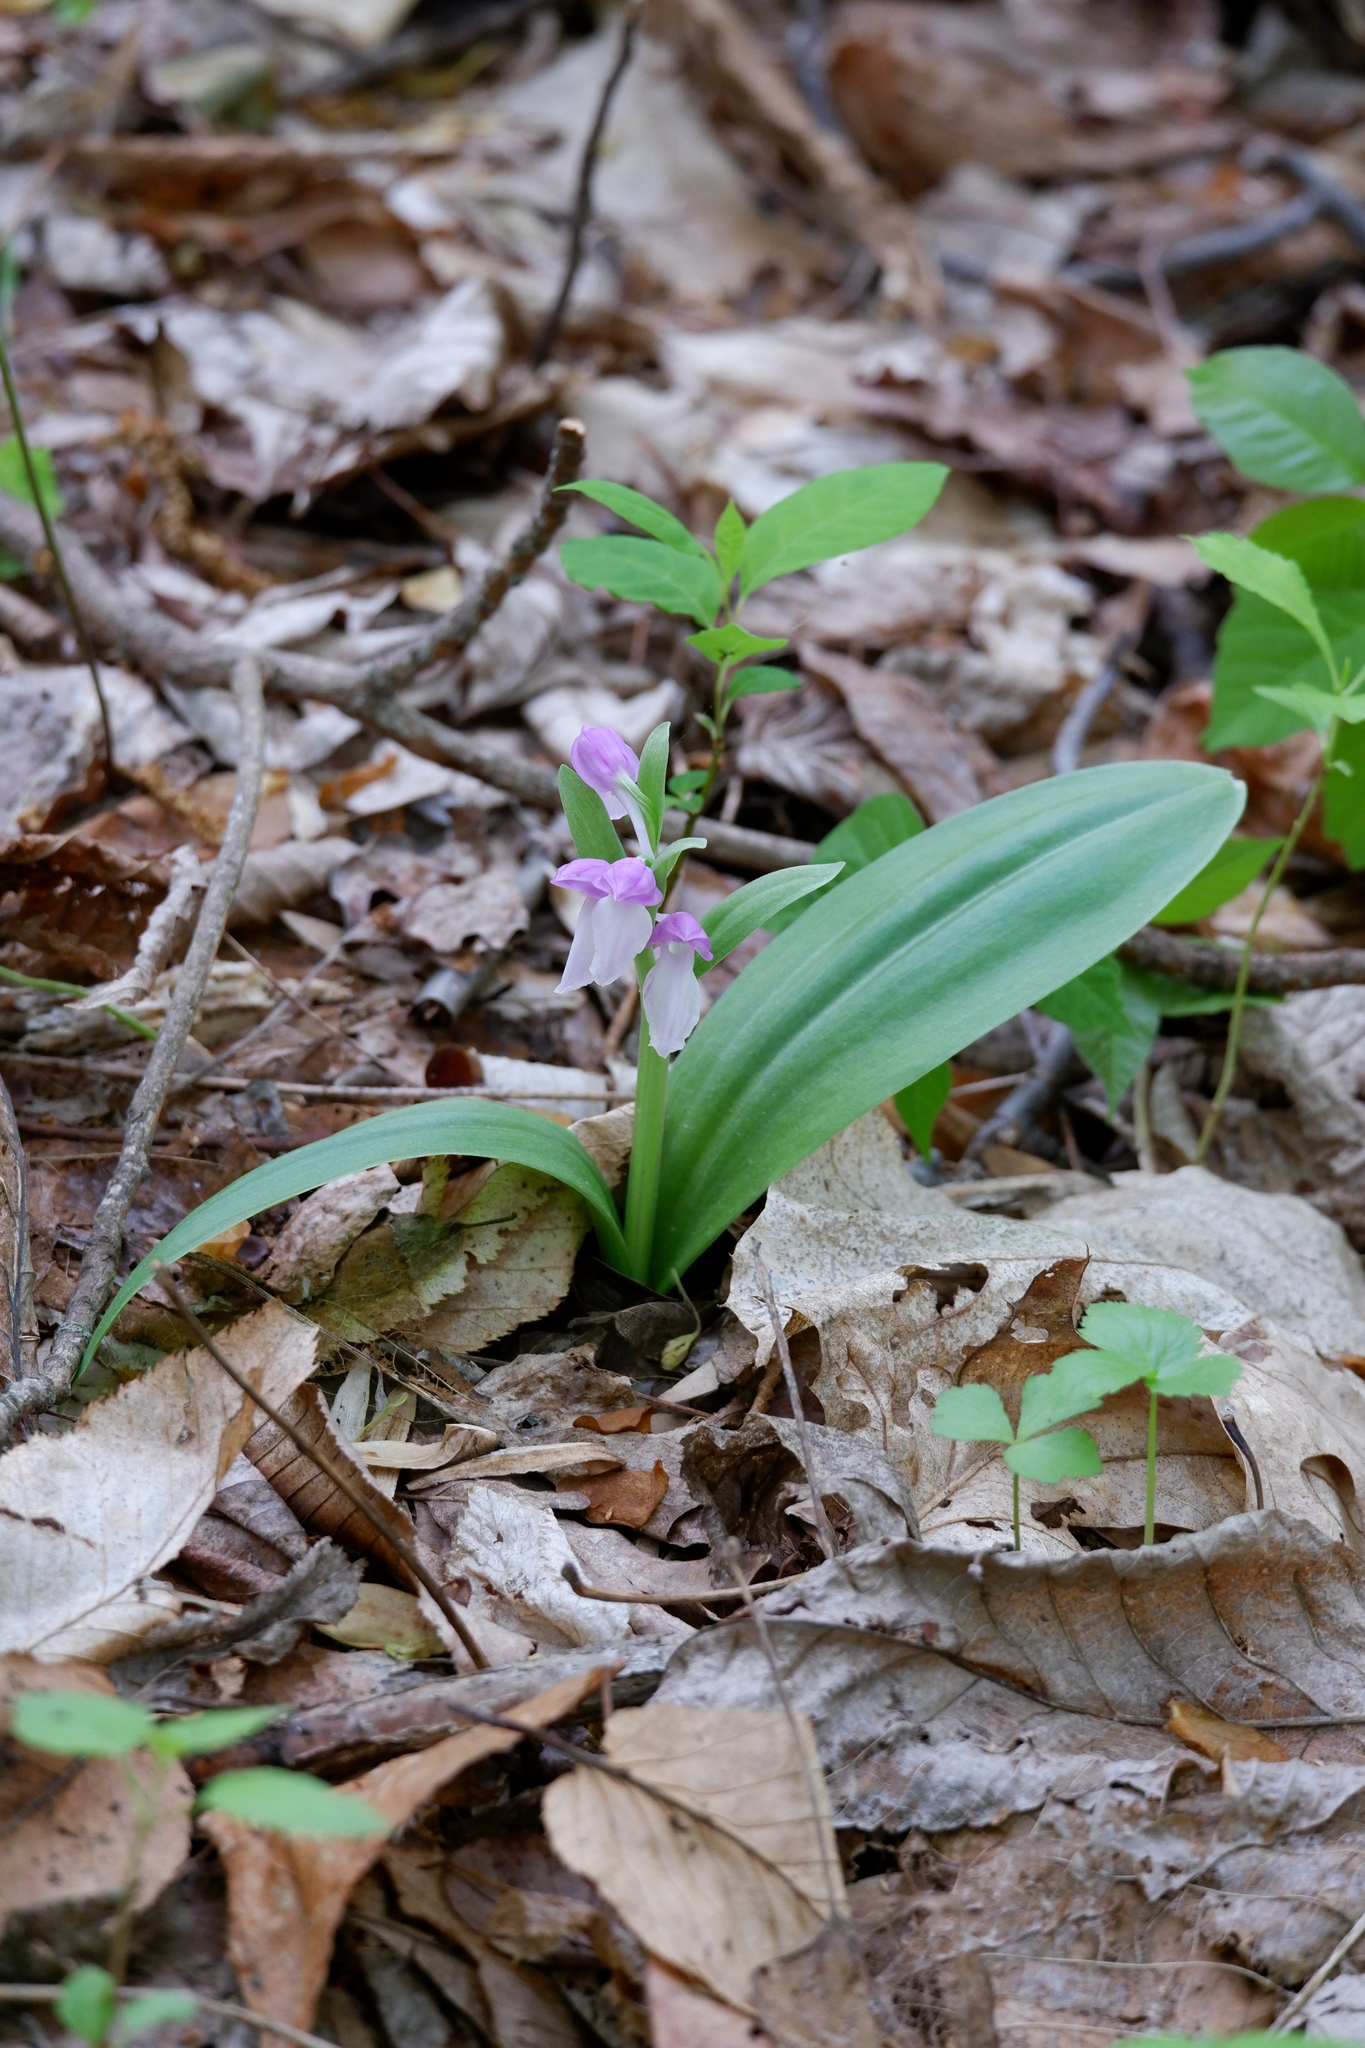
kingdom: Plantae
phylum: Tracheophyta
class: Liliopsida
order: Asparagales
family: Orchidaceae
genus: Galearis
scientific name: Galearis spectabilis
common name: Purple-hooded orchis
